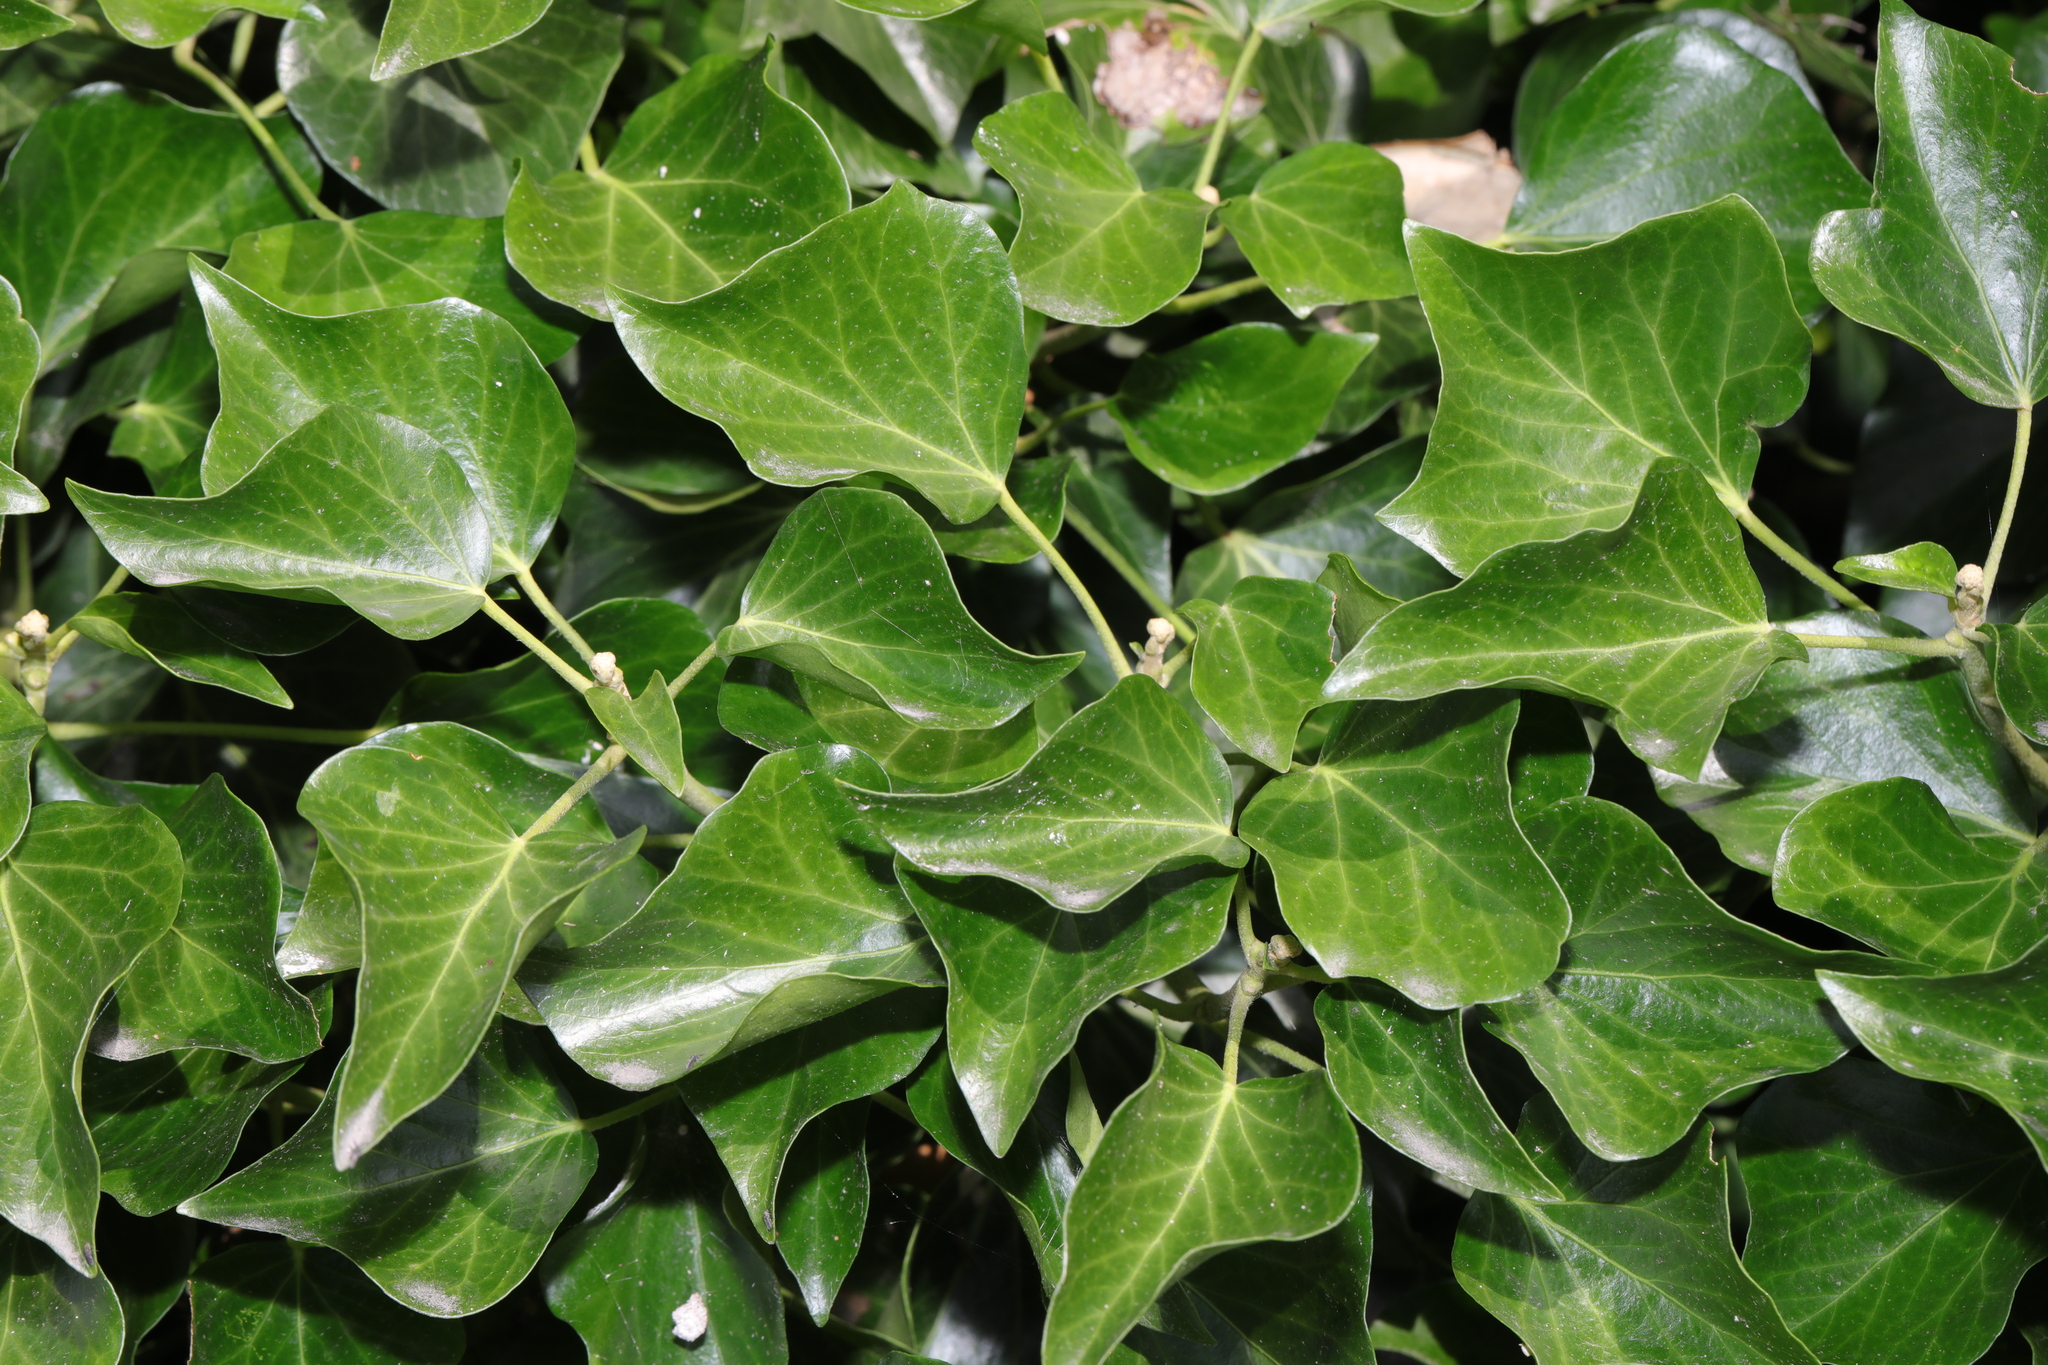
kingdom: Plantae
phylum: Tracheophyta
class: Magnoliopsida
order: Apiales
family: Araliaceae
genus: Hedera
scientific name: Hedera helix
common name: Ivy
